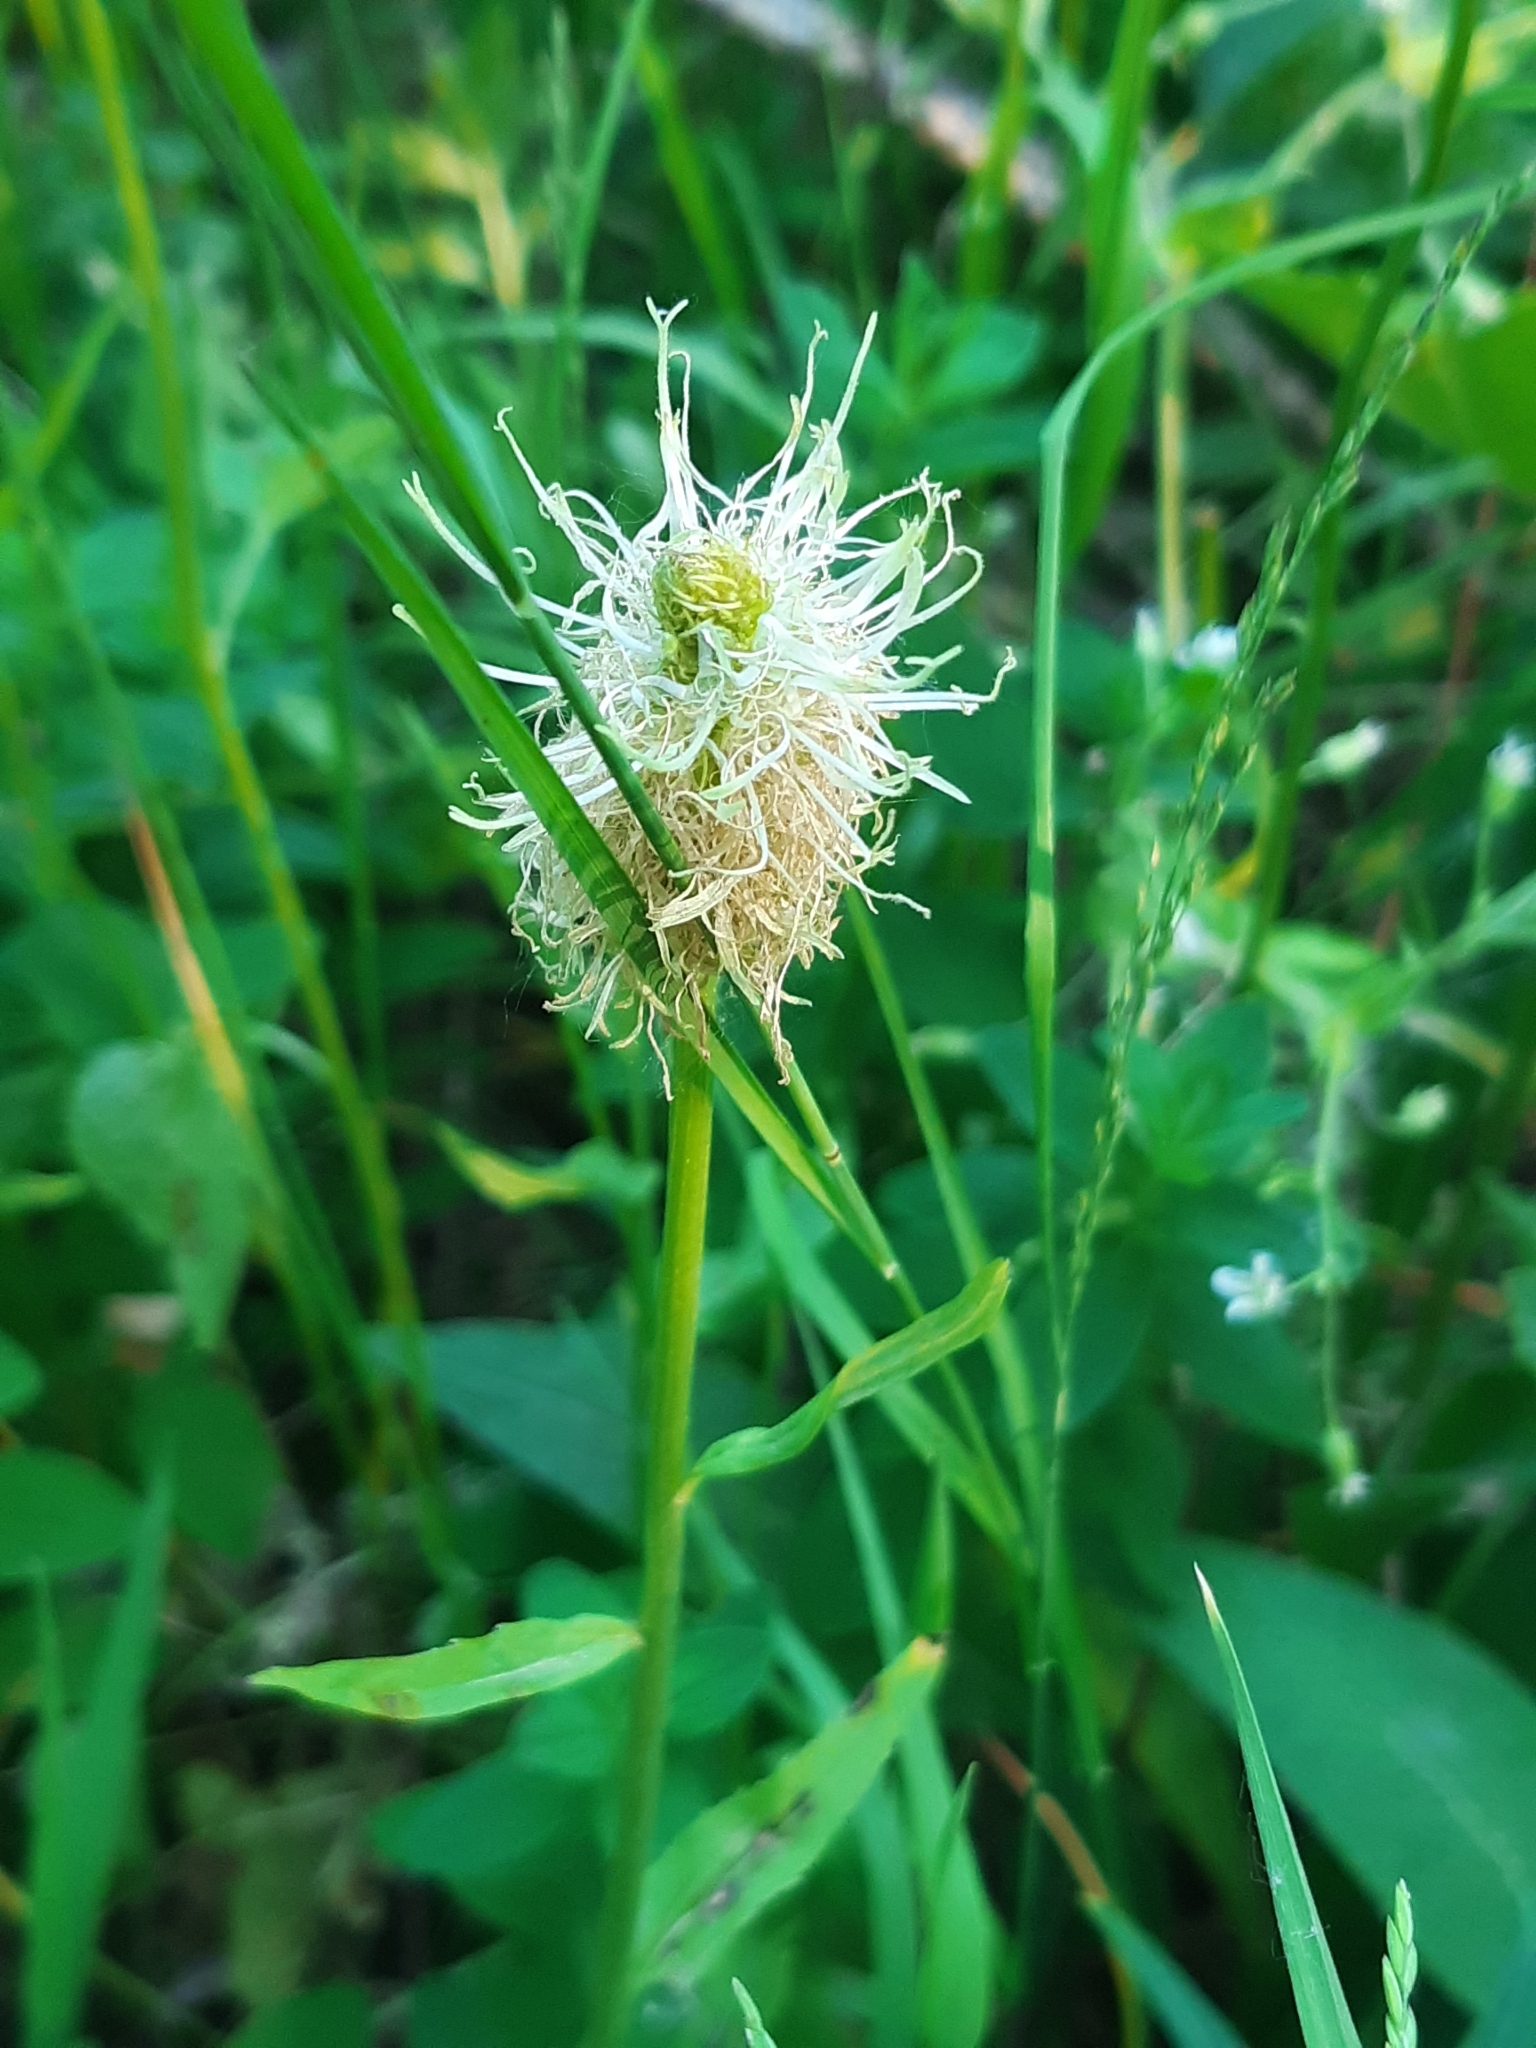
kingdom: Plantae
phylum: Tracheophyta
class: Magnoliopsida
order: Asterales
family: Campanulaceae
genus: Phyteuma
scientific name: Phyteuma spicatum
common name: Spiked rampion
